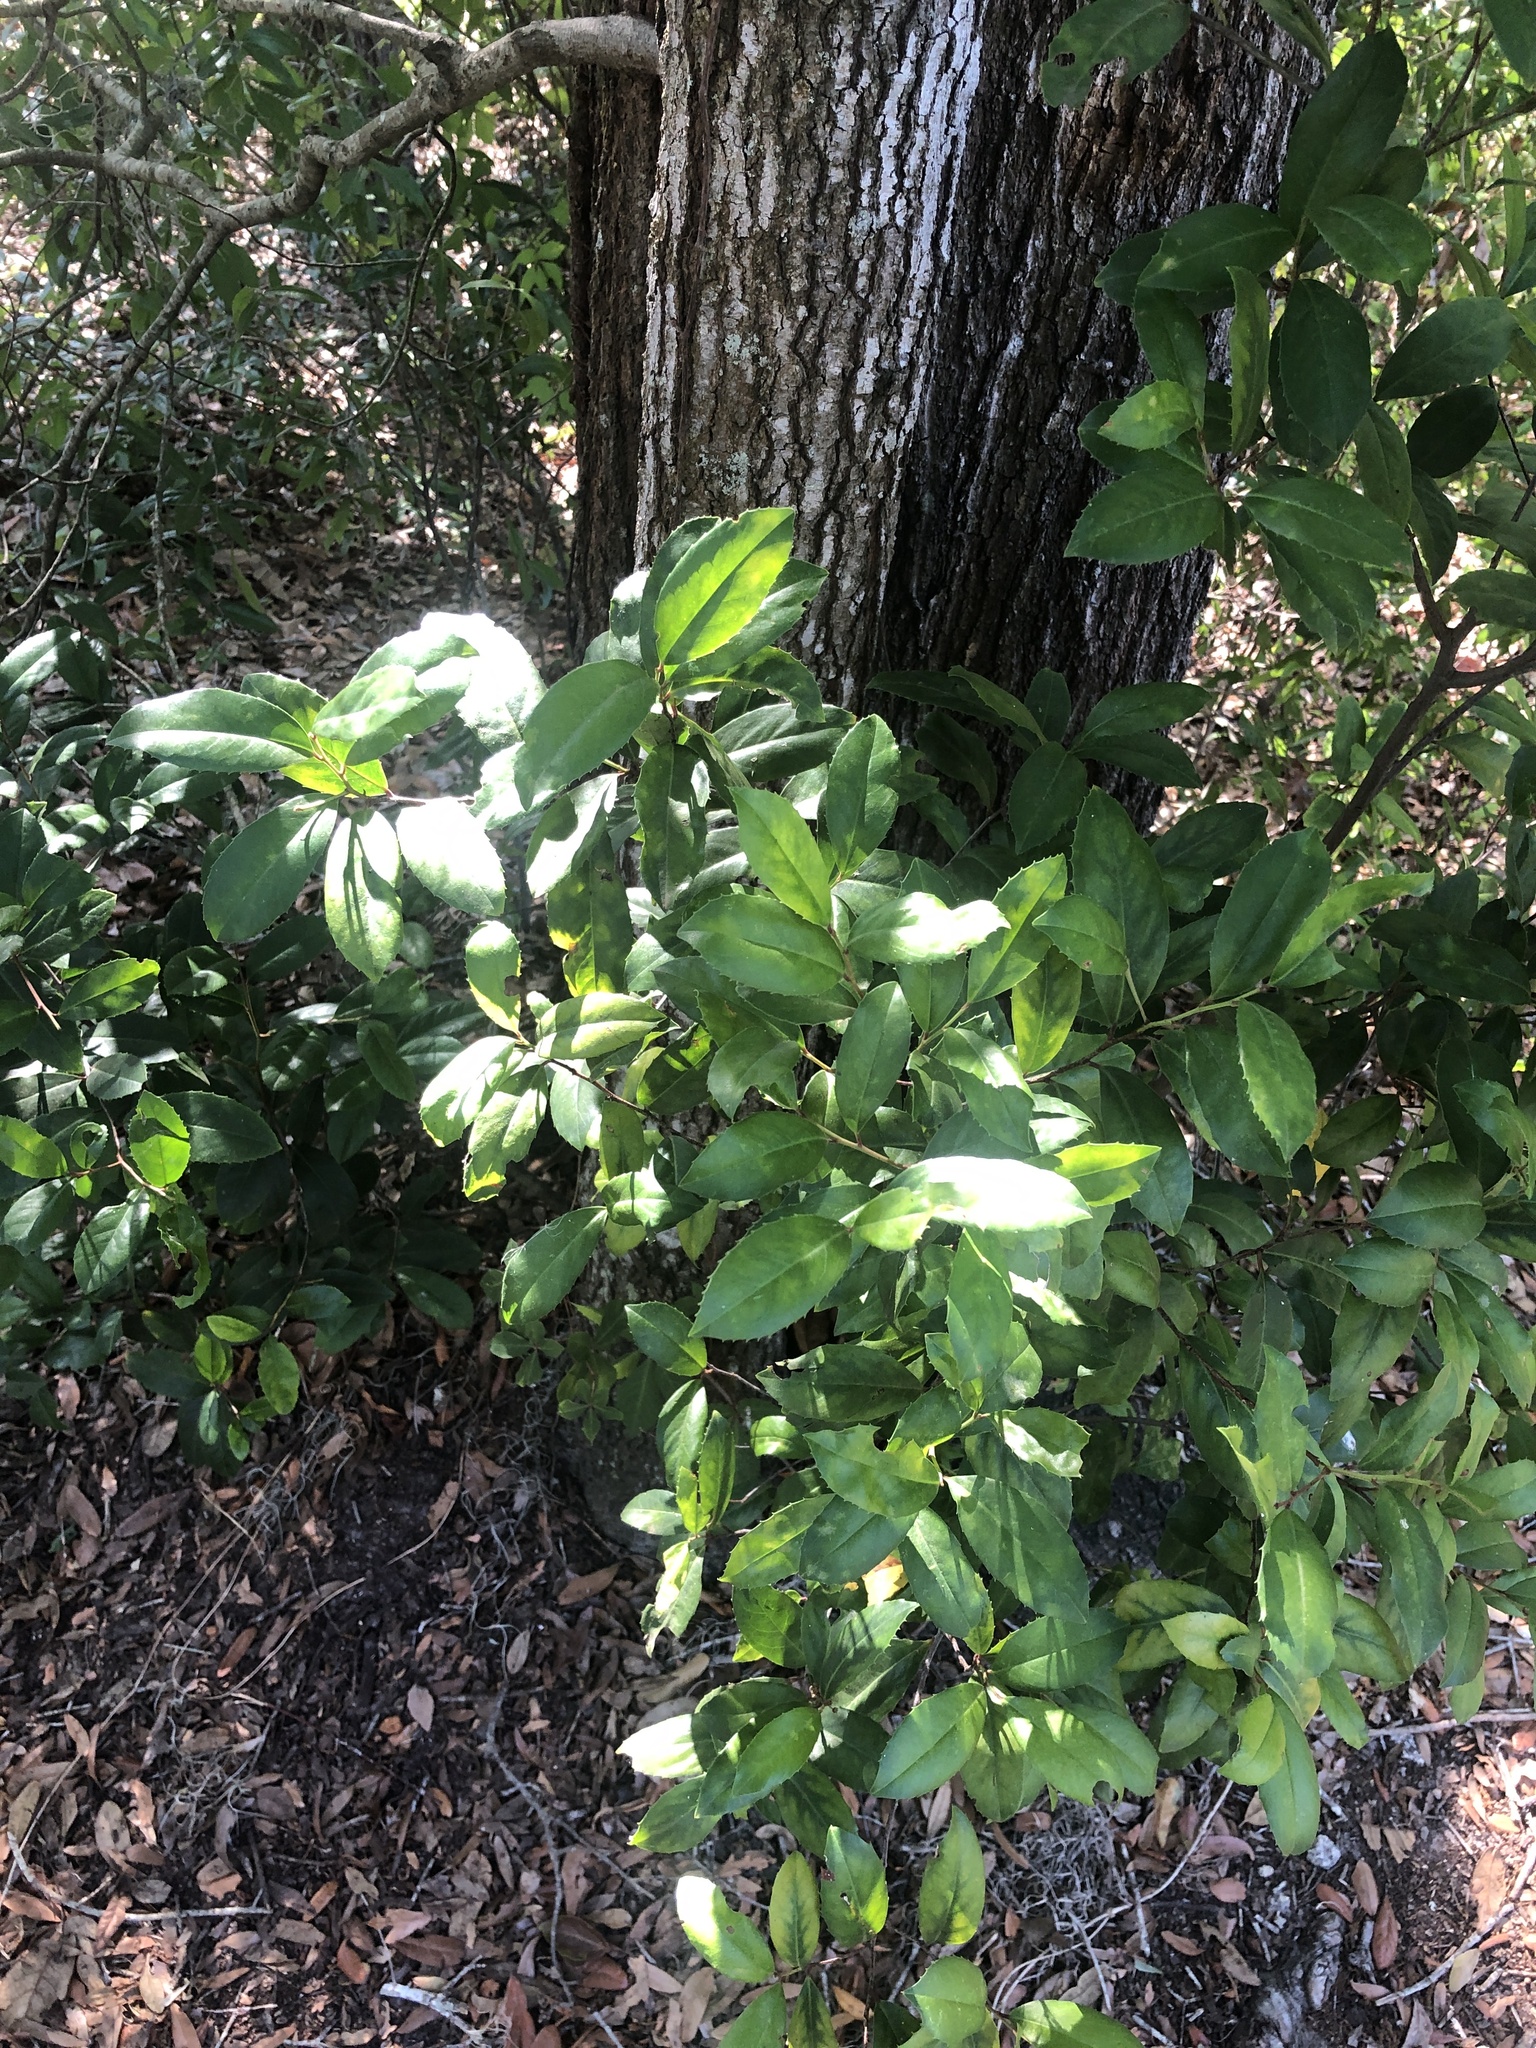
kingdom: Plantae
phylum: Tracheophyta
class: Magnoliopsida
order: Rosales
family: Rosaceae
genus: Prunus
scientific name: Prunus caroliniana
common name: Carolina laurel cherry
